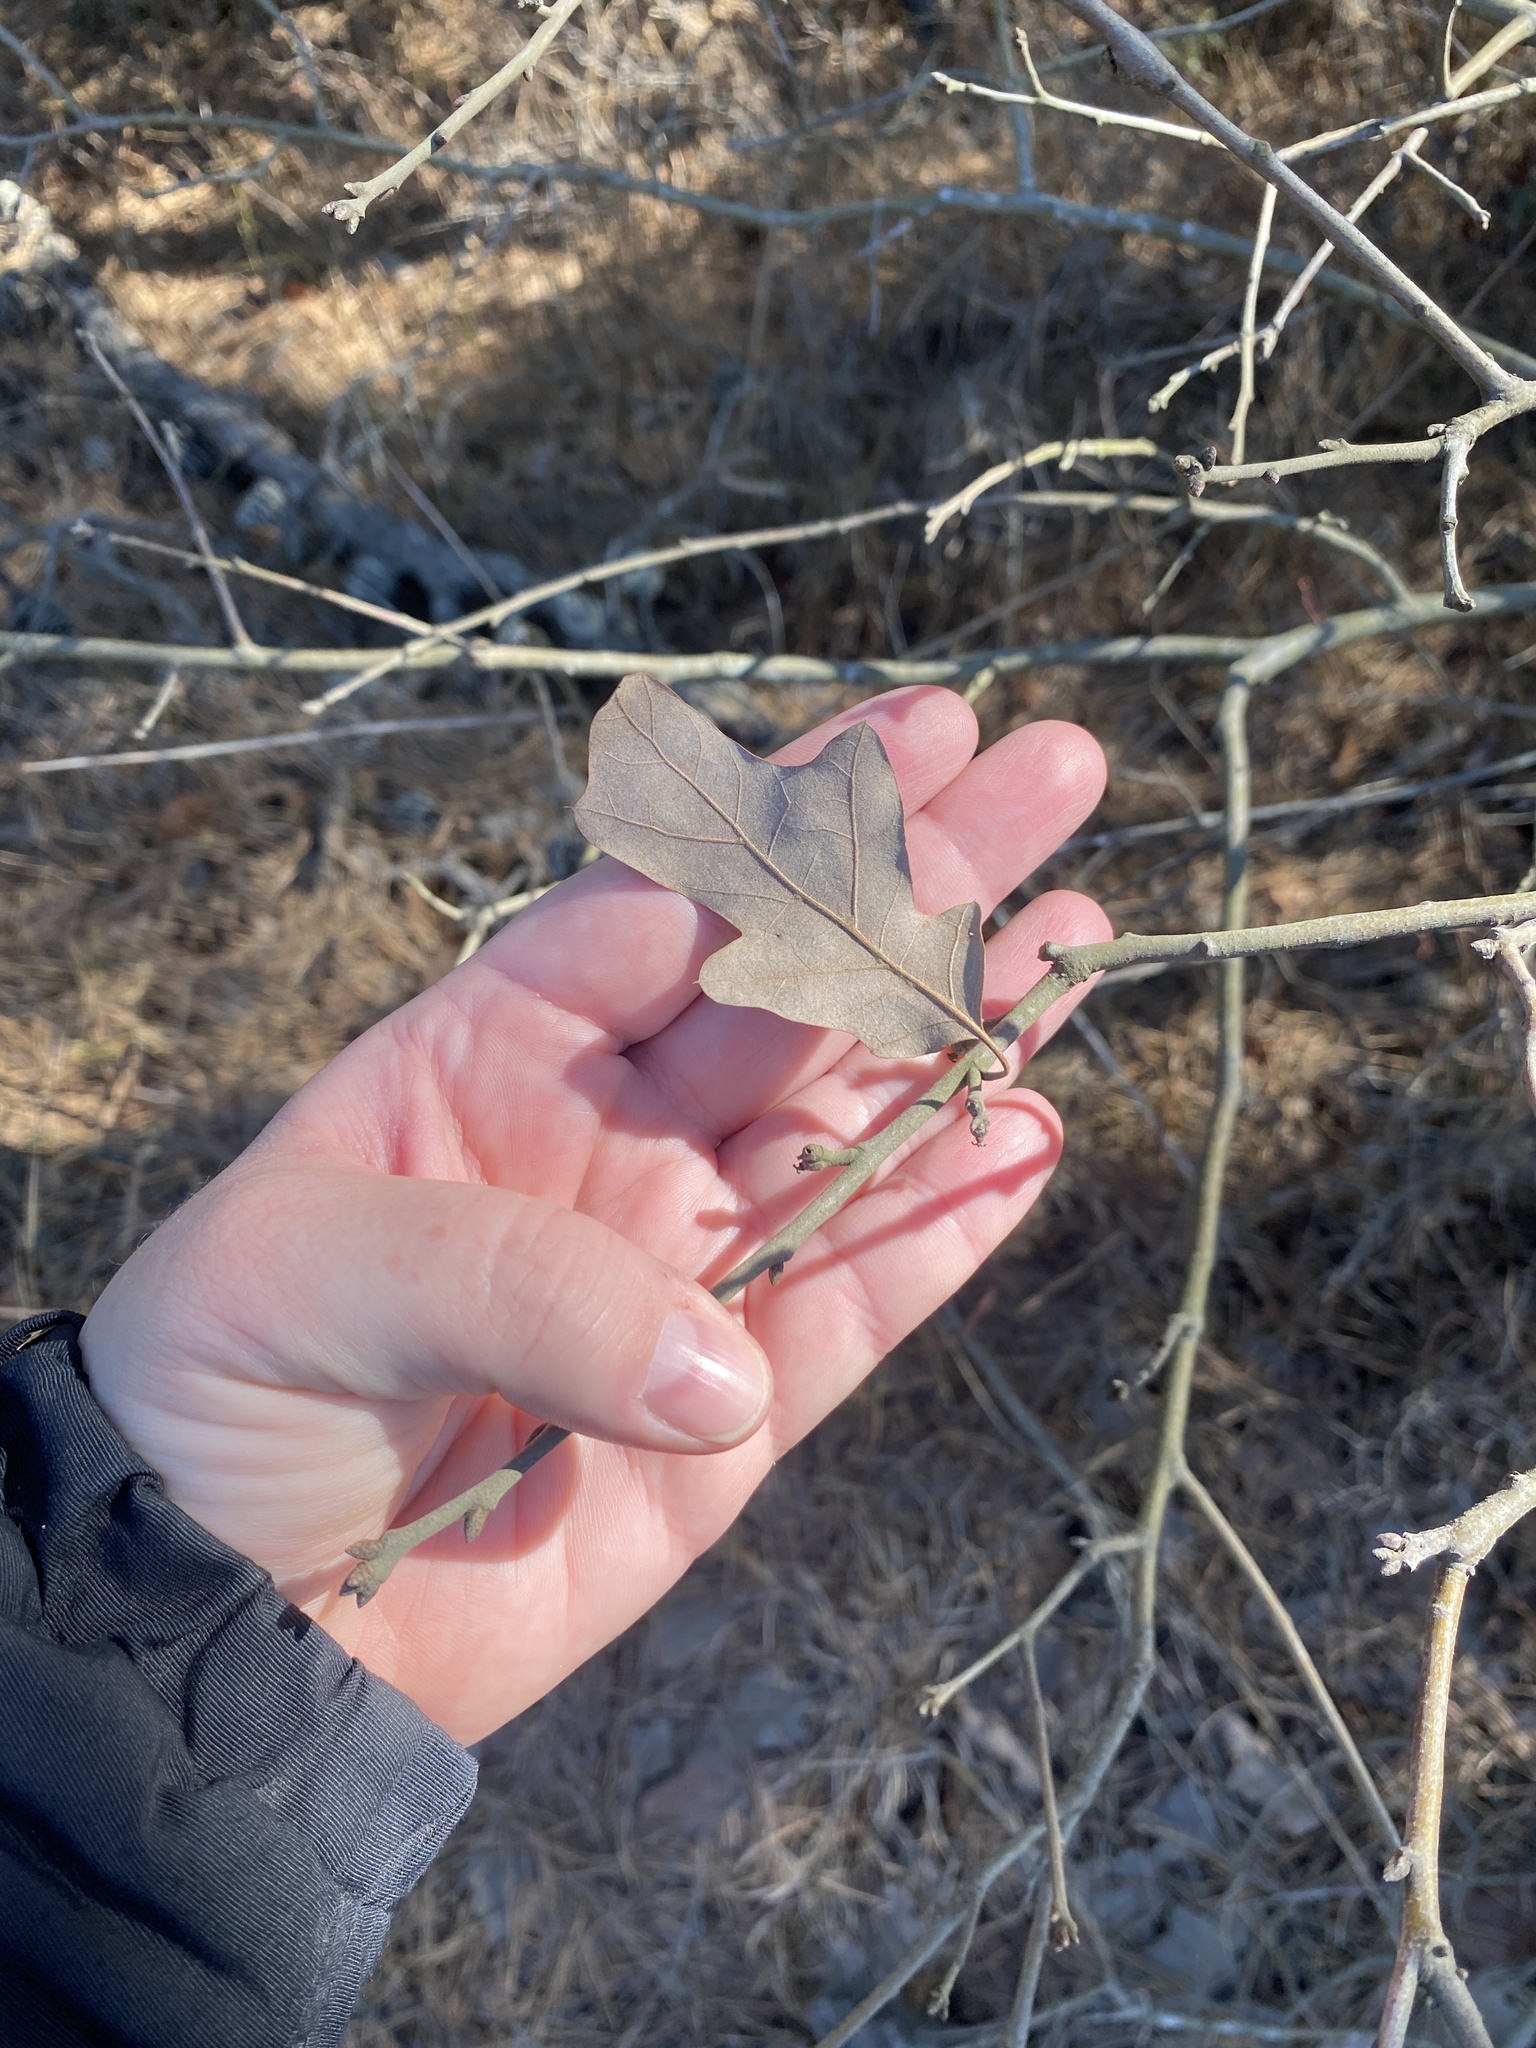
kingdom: Plantae
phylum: Tracheophyta
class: Magnoliopsida
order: Fagales
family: Fagaceae
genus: Quercus
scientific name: Quercus ilicifolia
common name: Bear oak
